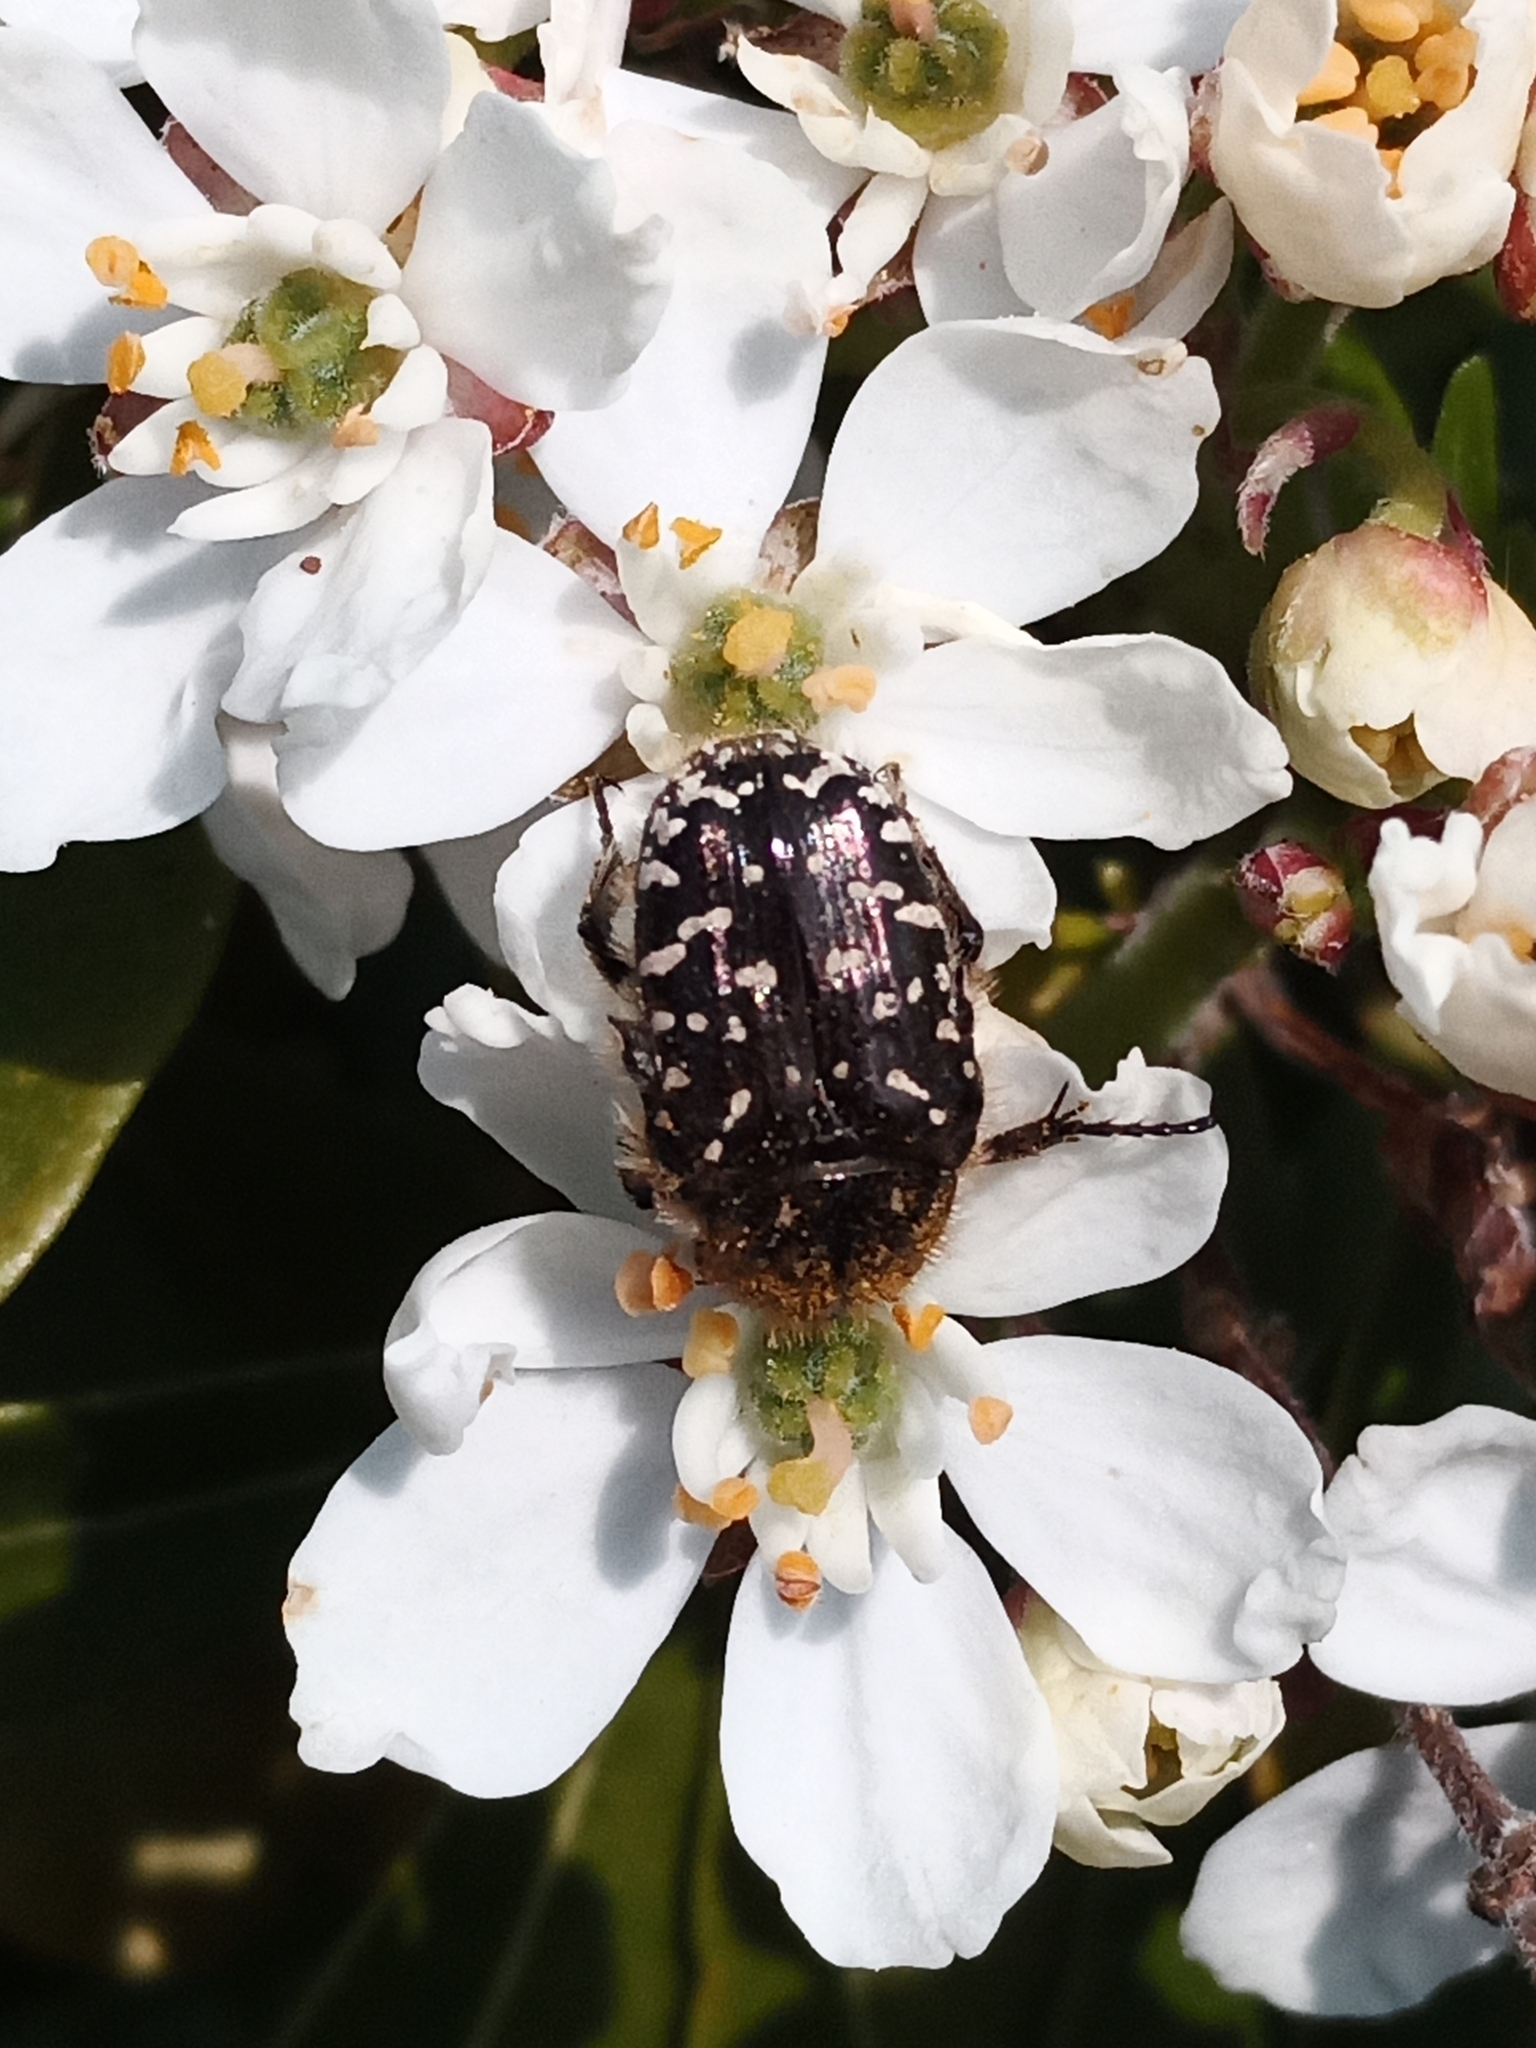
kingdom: Animalia
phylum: Arthropoda
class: Insecta
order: Coleoptera
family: Scarabaeidae
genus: Oxythyrea
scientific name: Oxythyrea funesta
